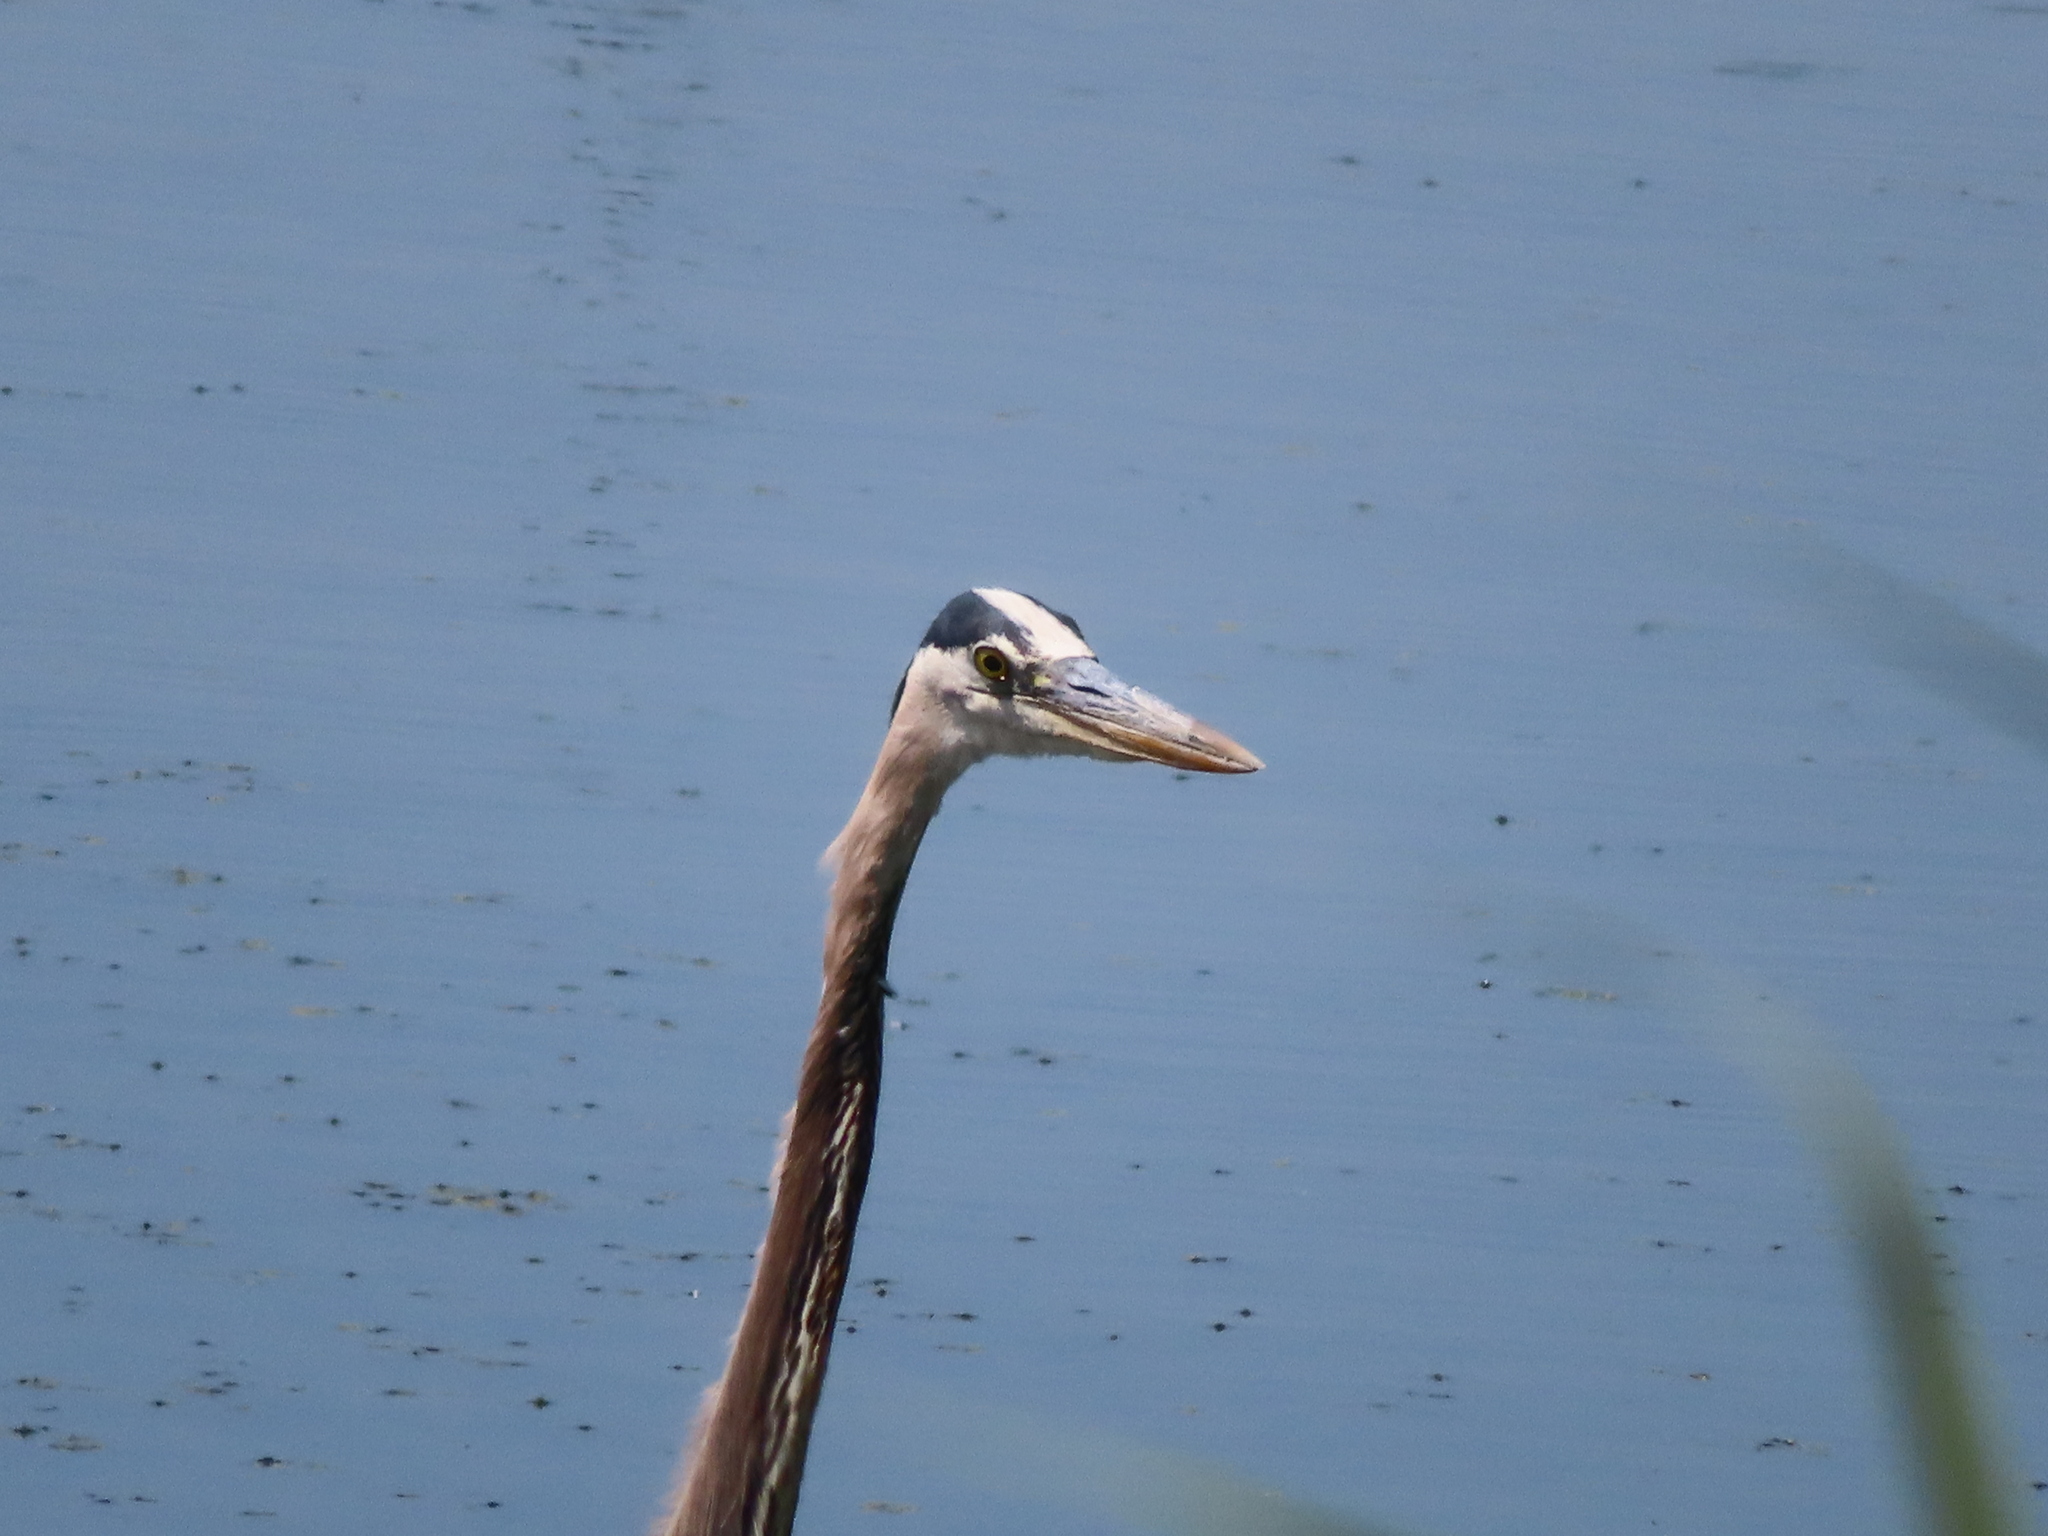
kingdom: Animalia
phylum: Chordata
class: Aves
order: Pelecaniformes
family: Ardeidae
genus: Ardea
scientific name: Ardea herodias
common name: Great blue heron
